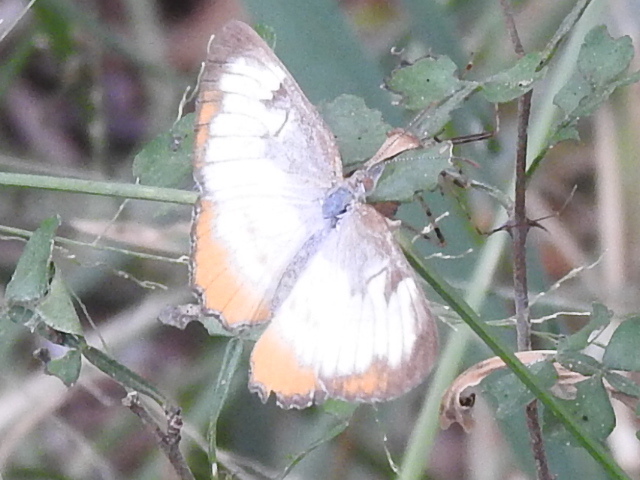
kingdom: Animalia
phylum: Arthropoda
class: Insecta
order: Lepidoptera
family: Nymphalidae
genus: Mestra
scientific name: Mestra amymone
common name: Common mestra
